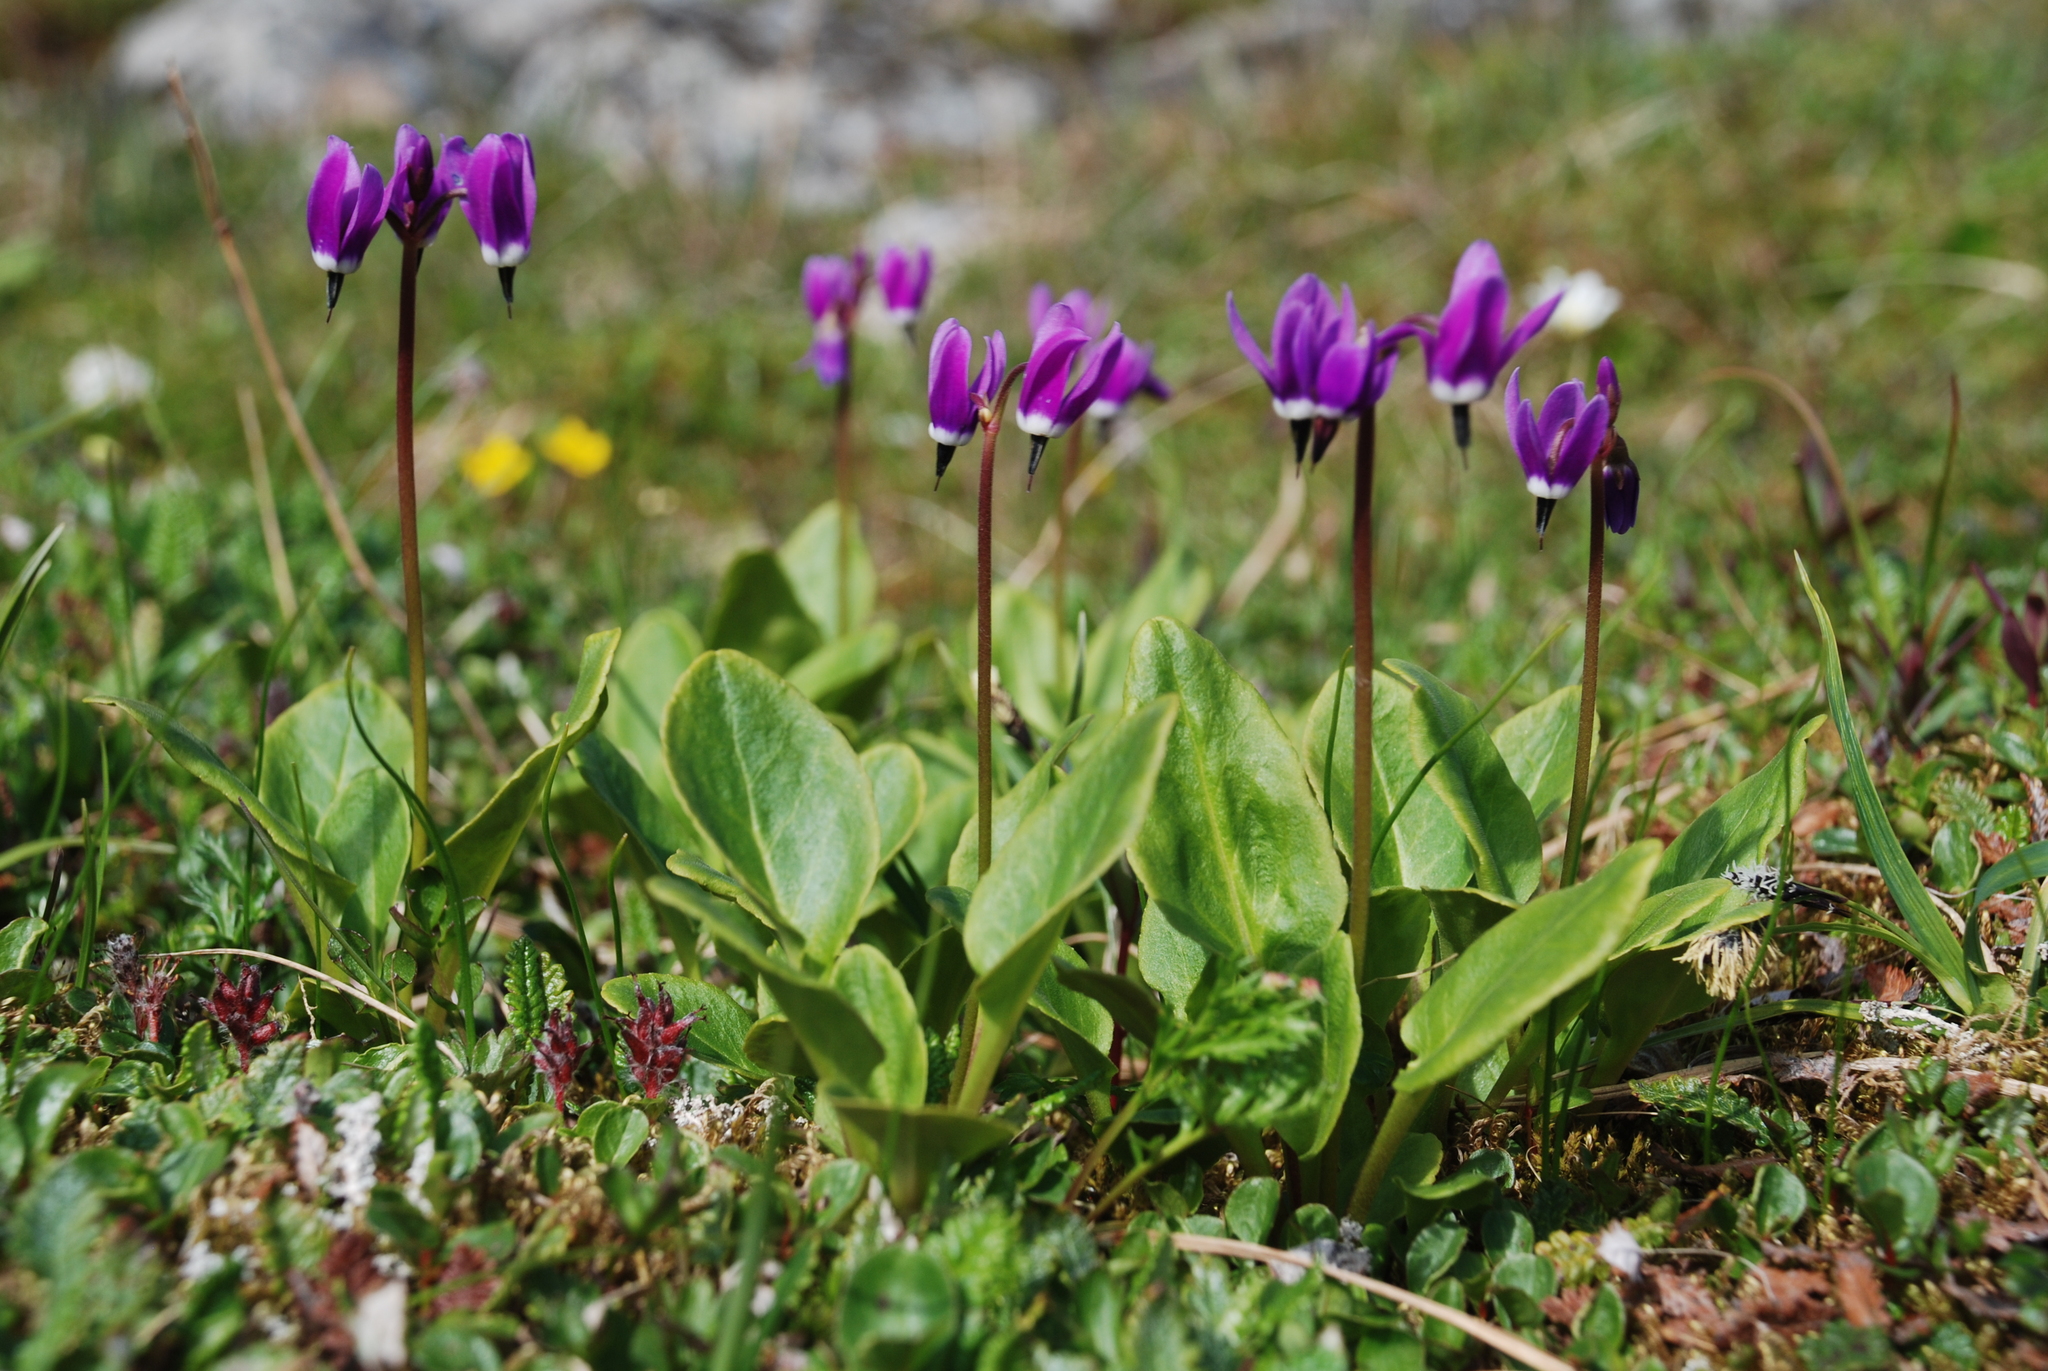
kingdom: Plantae
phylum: Tracheophyta
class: Magnoliopsida
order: Ericales
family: Primulaceae
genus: Dodecatheon
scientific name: Dodecatheon frigidum
